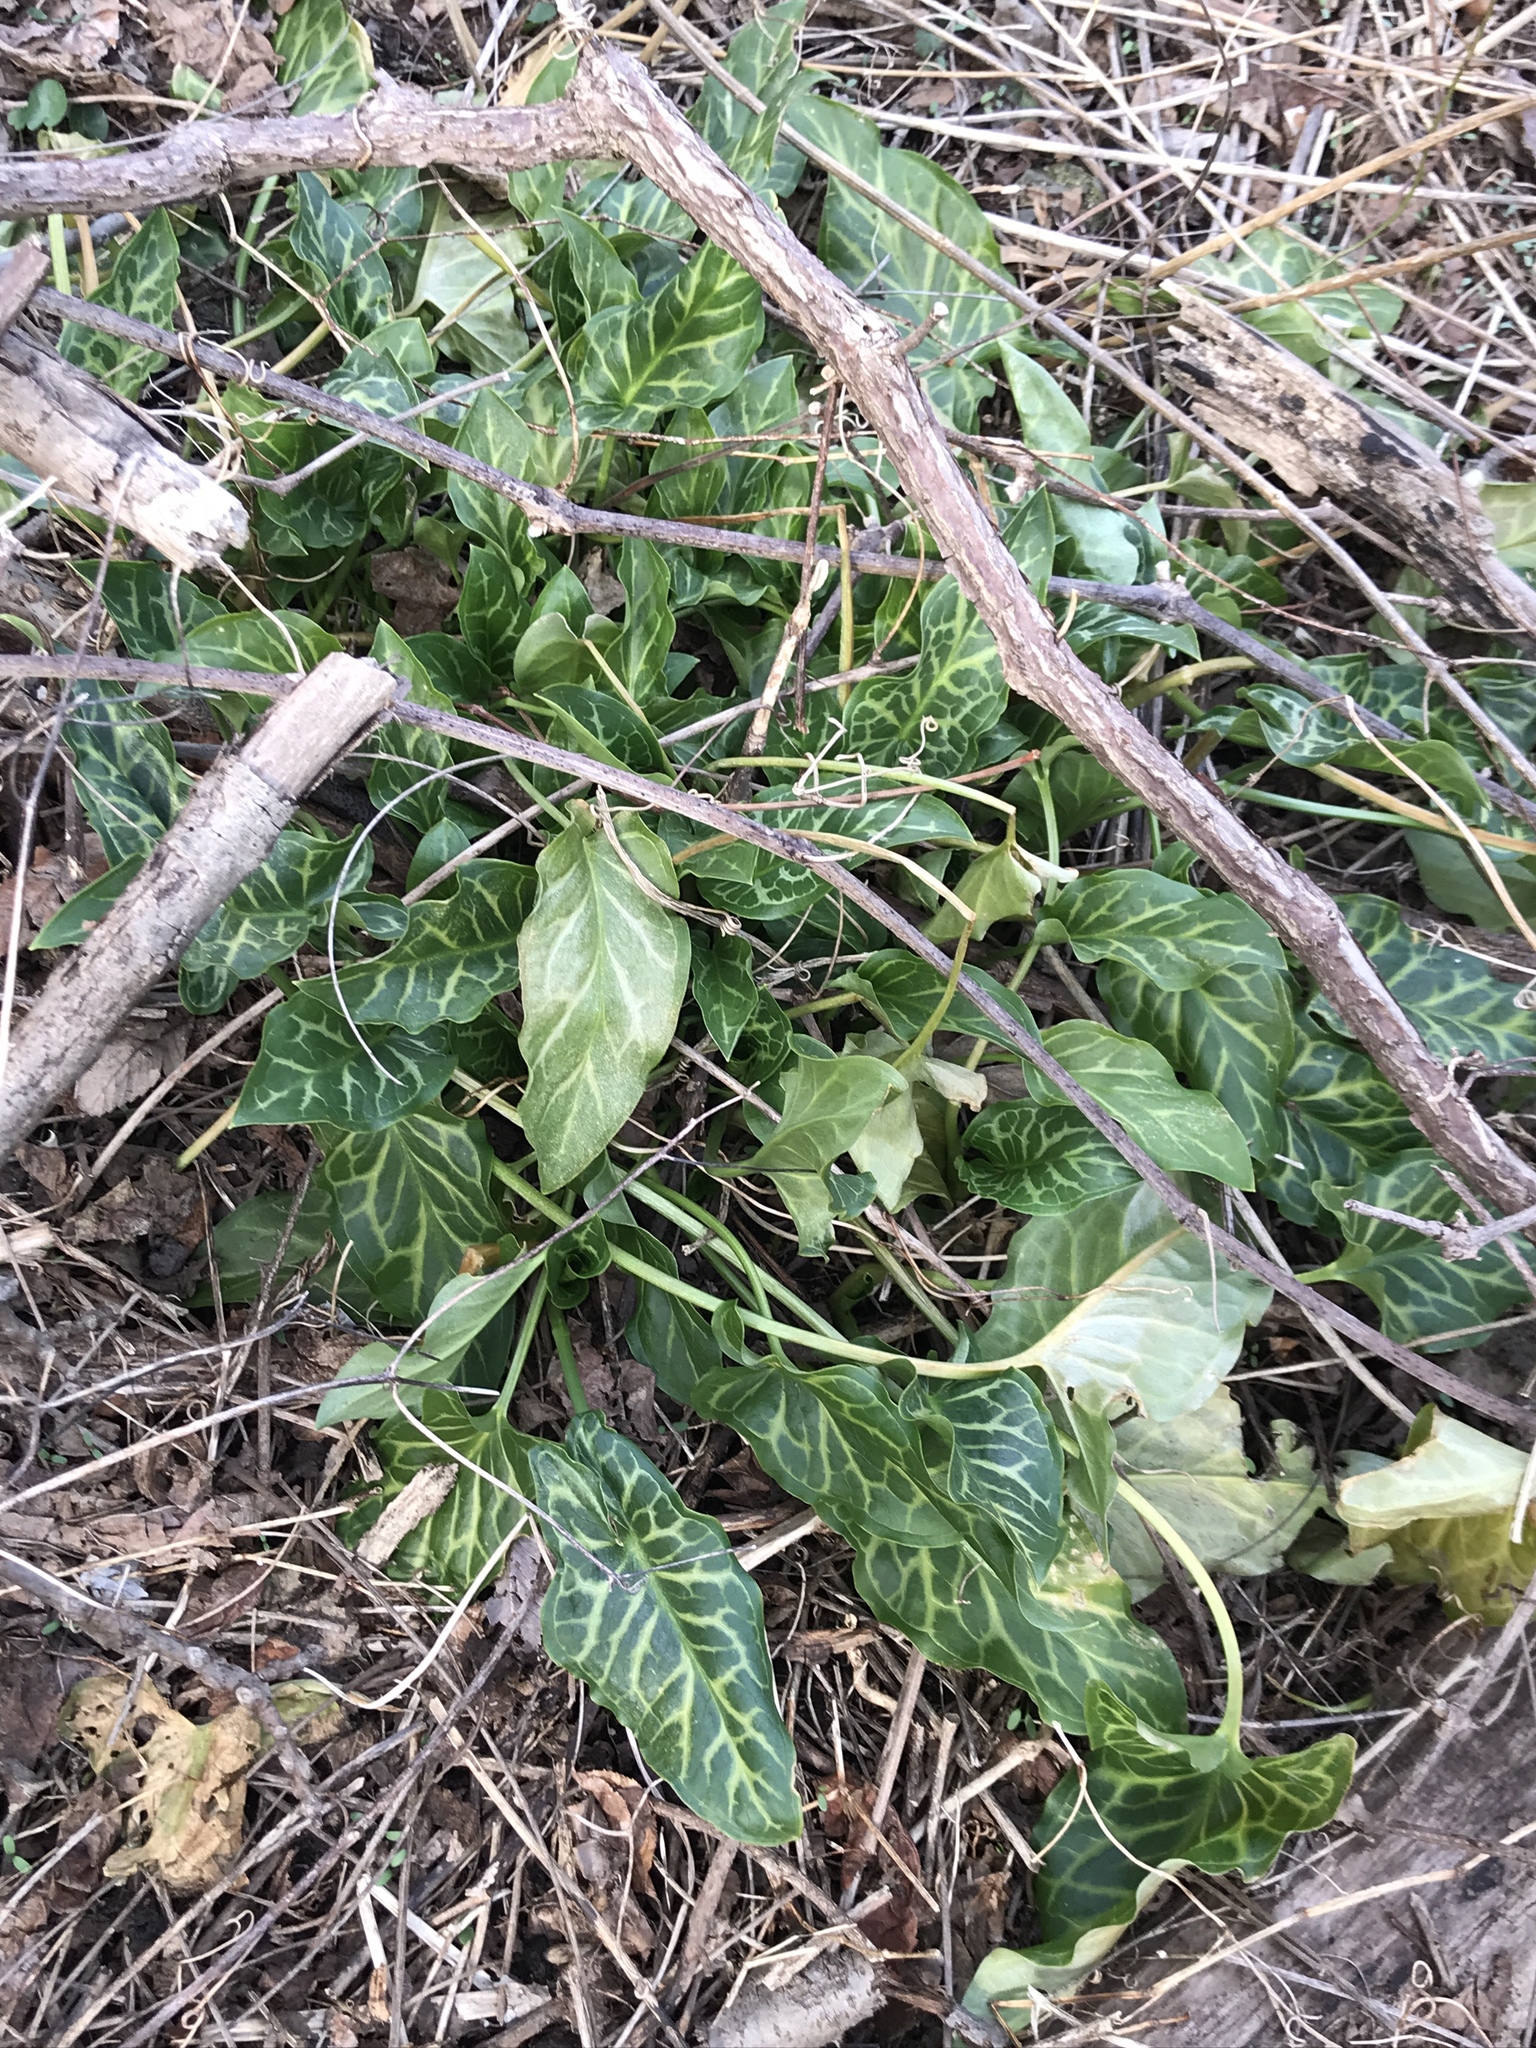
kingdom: Plantae
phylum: Tracheophyta
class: Liliopsida
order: Alismatales
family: Araceae
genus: Arum
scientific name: Arum italicum
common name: Italian lords-and-ladies
